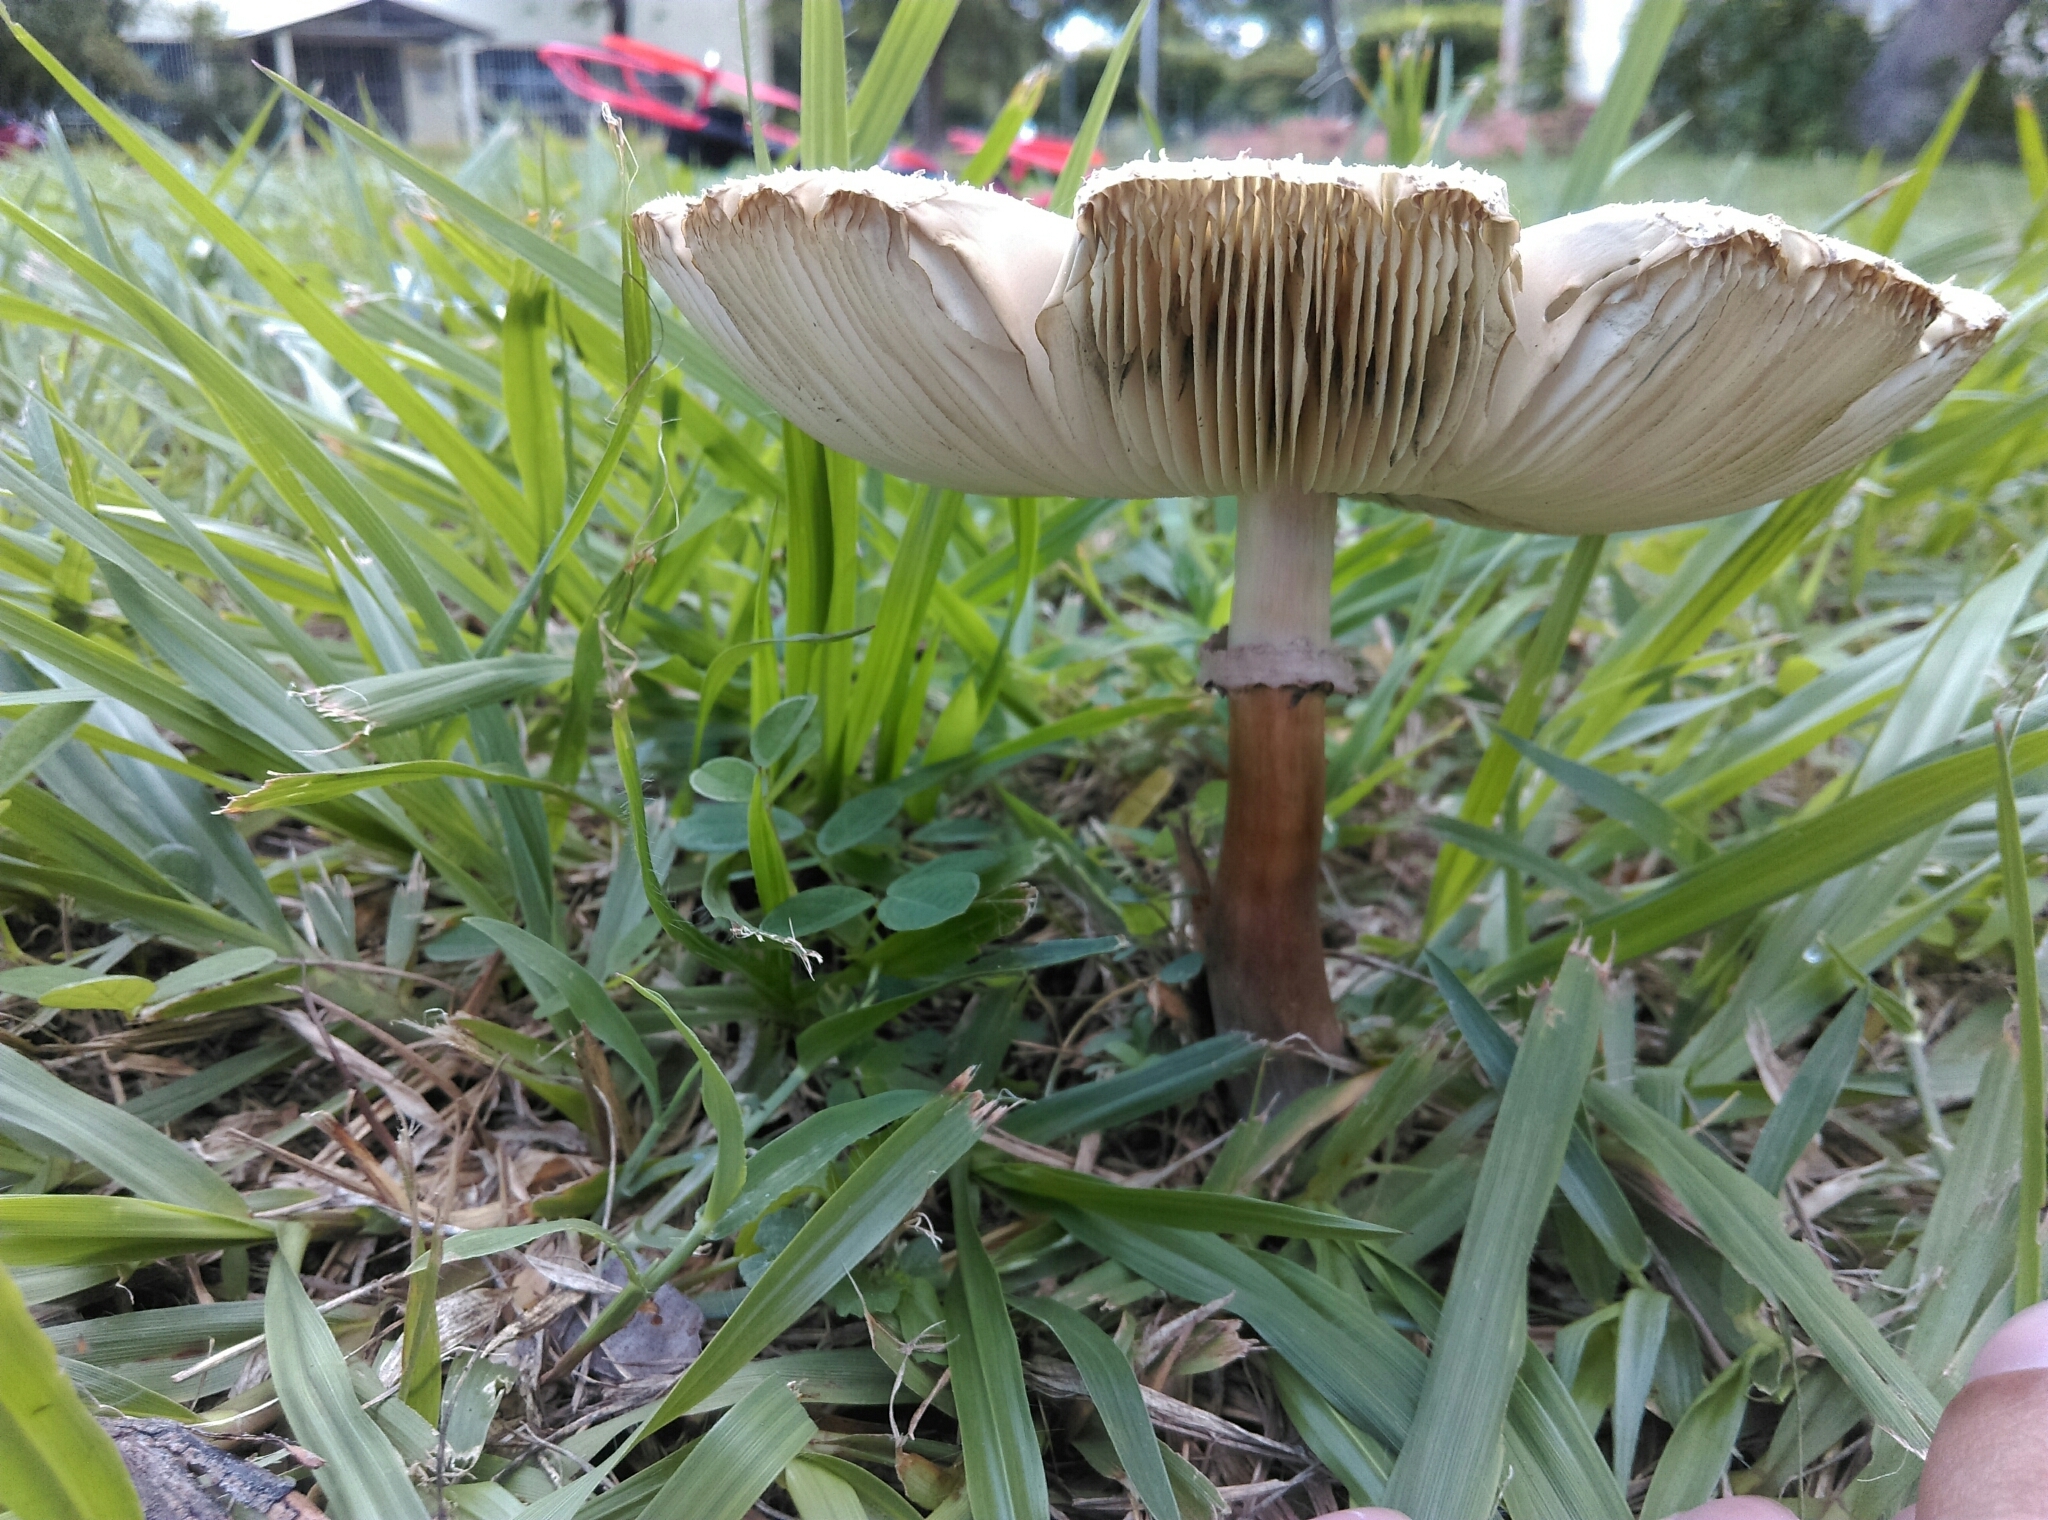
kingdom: Fungi
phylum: Basidiomycota
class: Agaricomycetes
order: Agaricales
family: Agaricaceae
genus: Chlorophyllum
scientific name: Chlorophyllum molybdites
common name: False parasol
